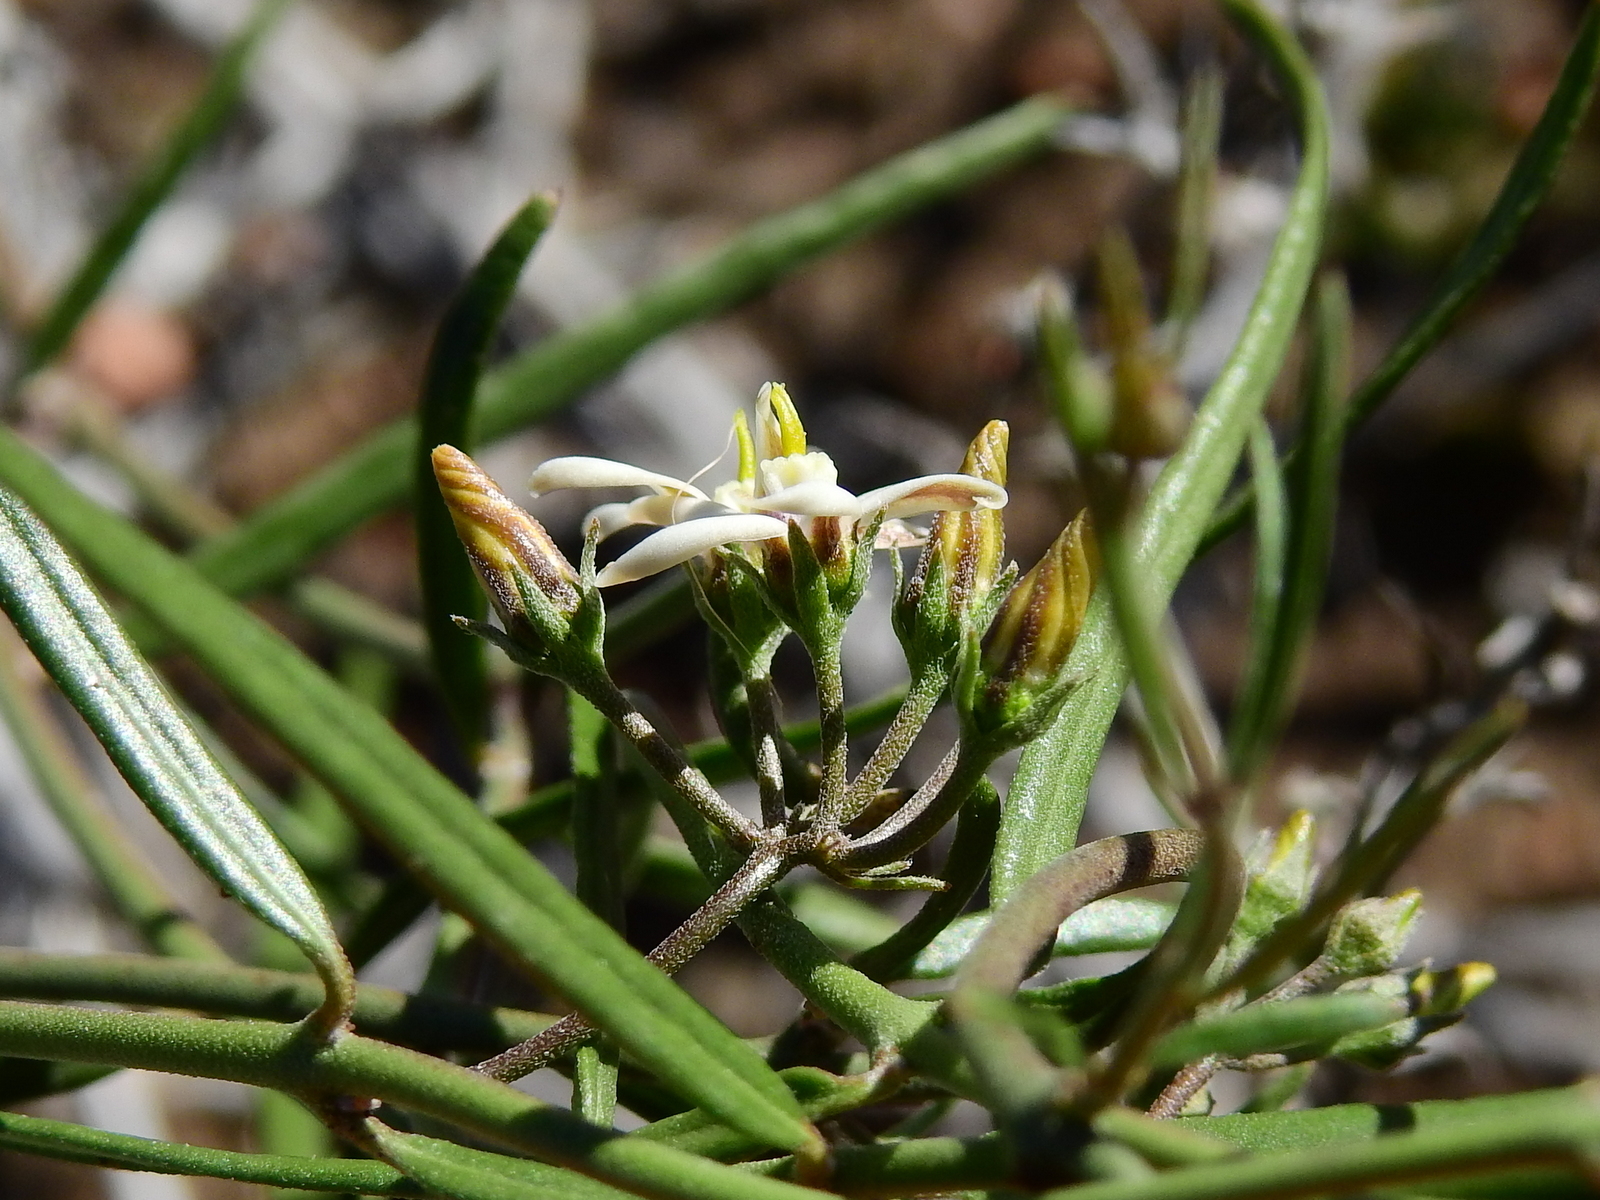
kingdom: Plantae
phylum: Tracheophyta
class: Magnoliopsida
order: Gentianales
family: Apocynaceae
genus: Tweedia
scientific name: Tweedia brunonis
